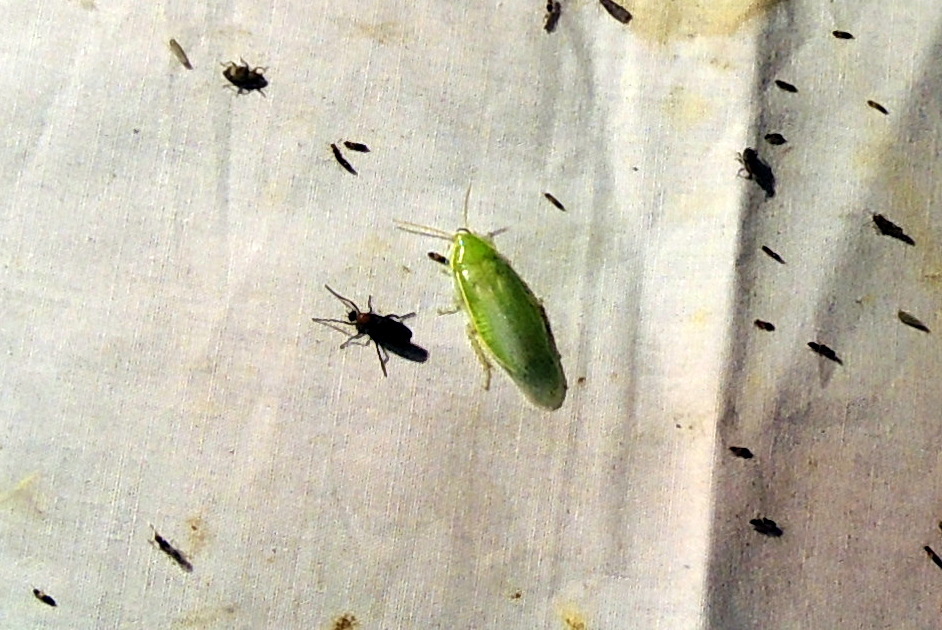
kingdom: Animalia
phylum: Arthropoda
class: Insecta
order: Blattodea
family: Blaberidae
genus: Panchlora
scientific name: Panchlora nivea
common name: Cuban cockroach
